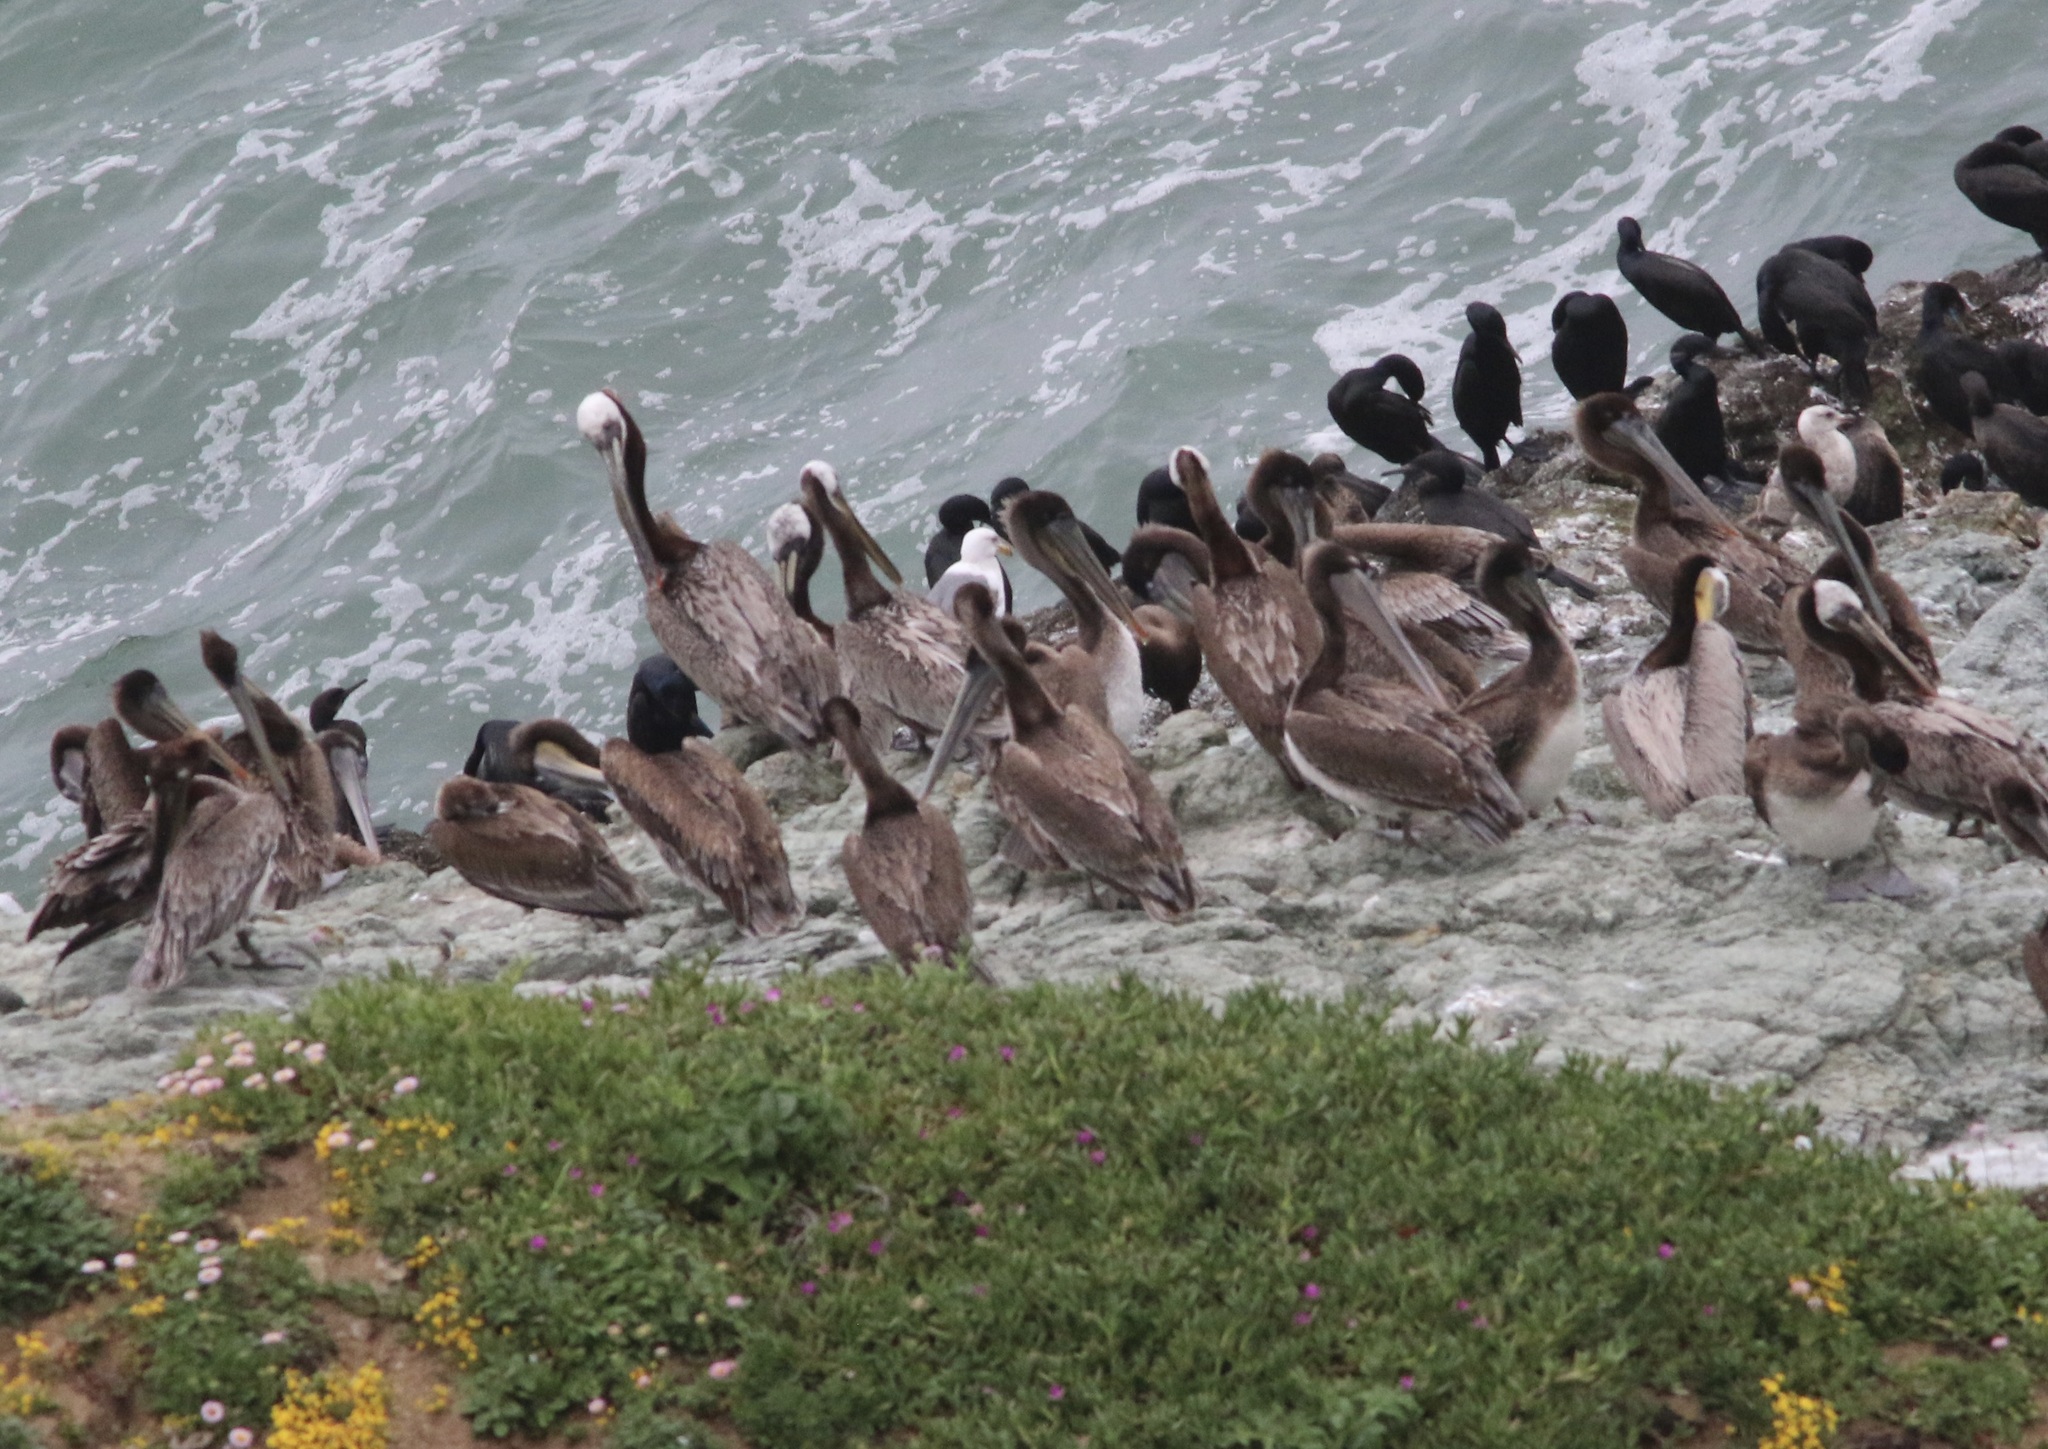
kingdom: Animalia
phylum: Chordata
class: Aves
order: Pelecaniformes
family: Pelecanidae
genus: Pelecanus
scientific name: Pelecanus occidentalis
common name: Brown pelican
